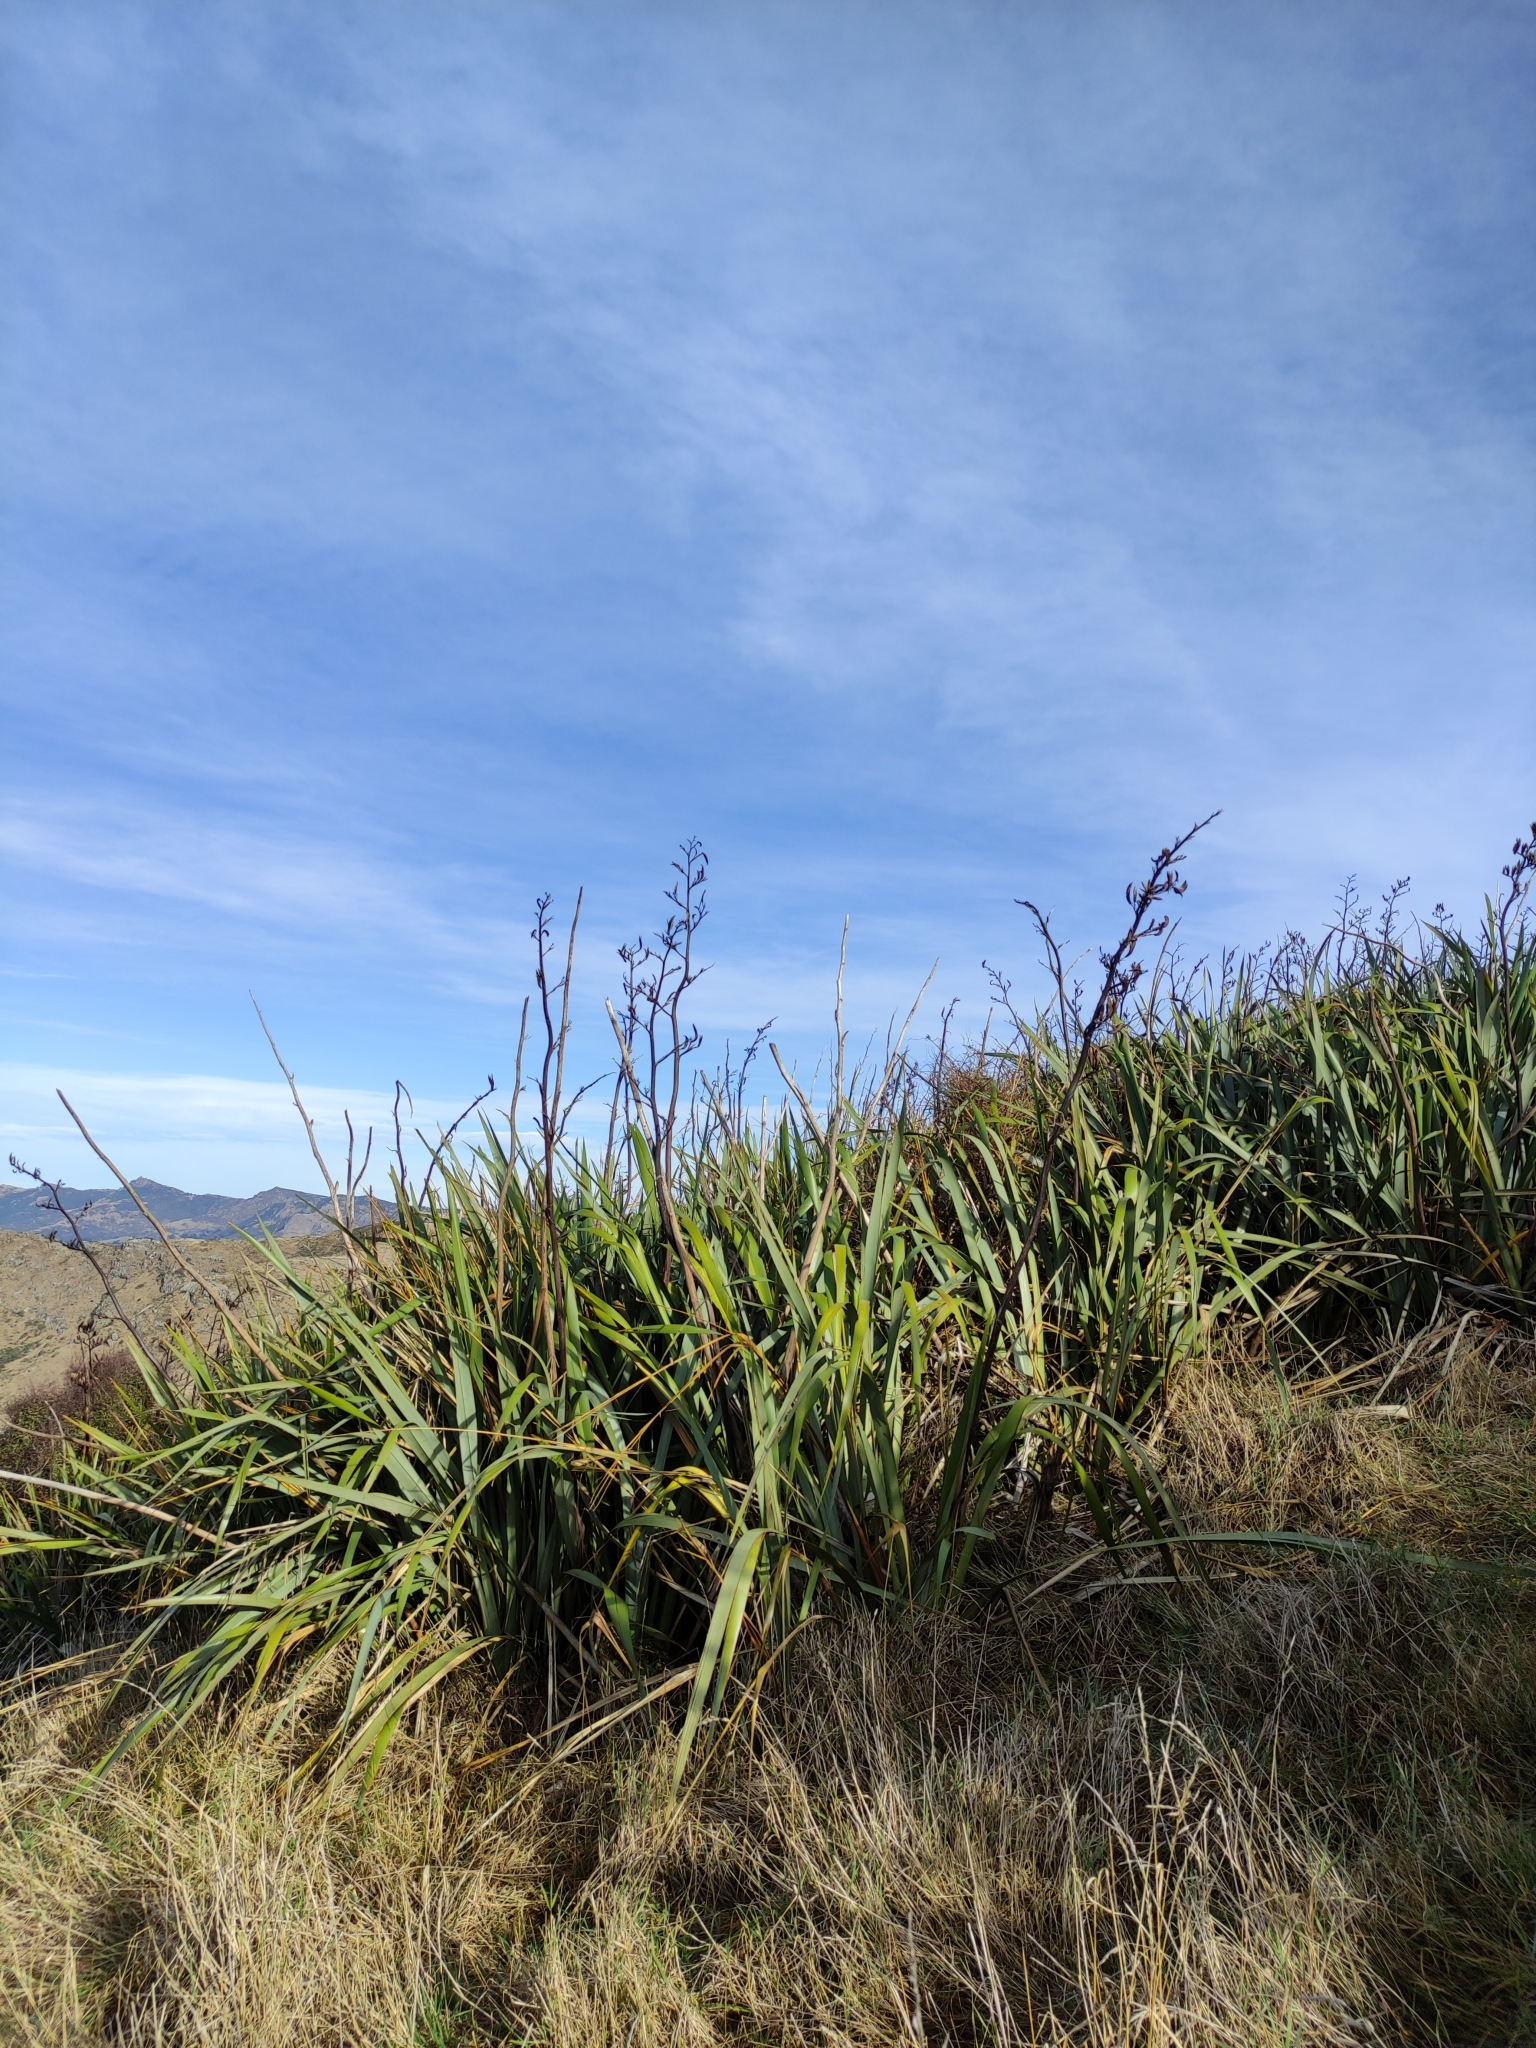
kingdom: Plantae
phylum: Tracheophyta
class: Liliopsida
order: Asparagales
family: Asphodelaceae
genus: Phormium
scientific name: Phormium tenax
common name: New zealand flax
